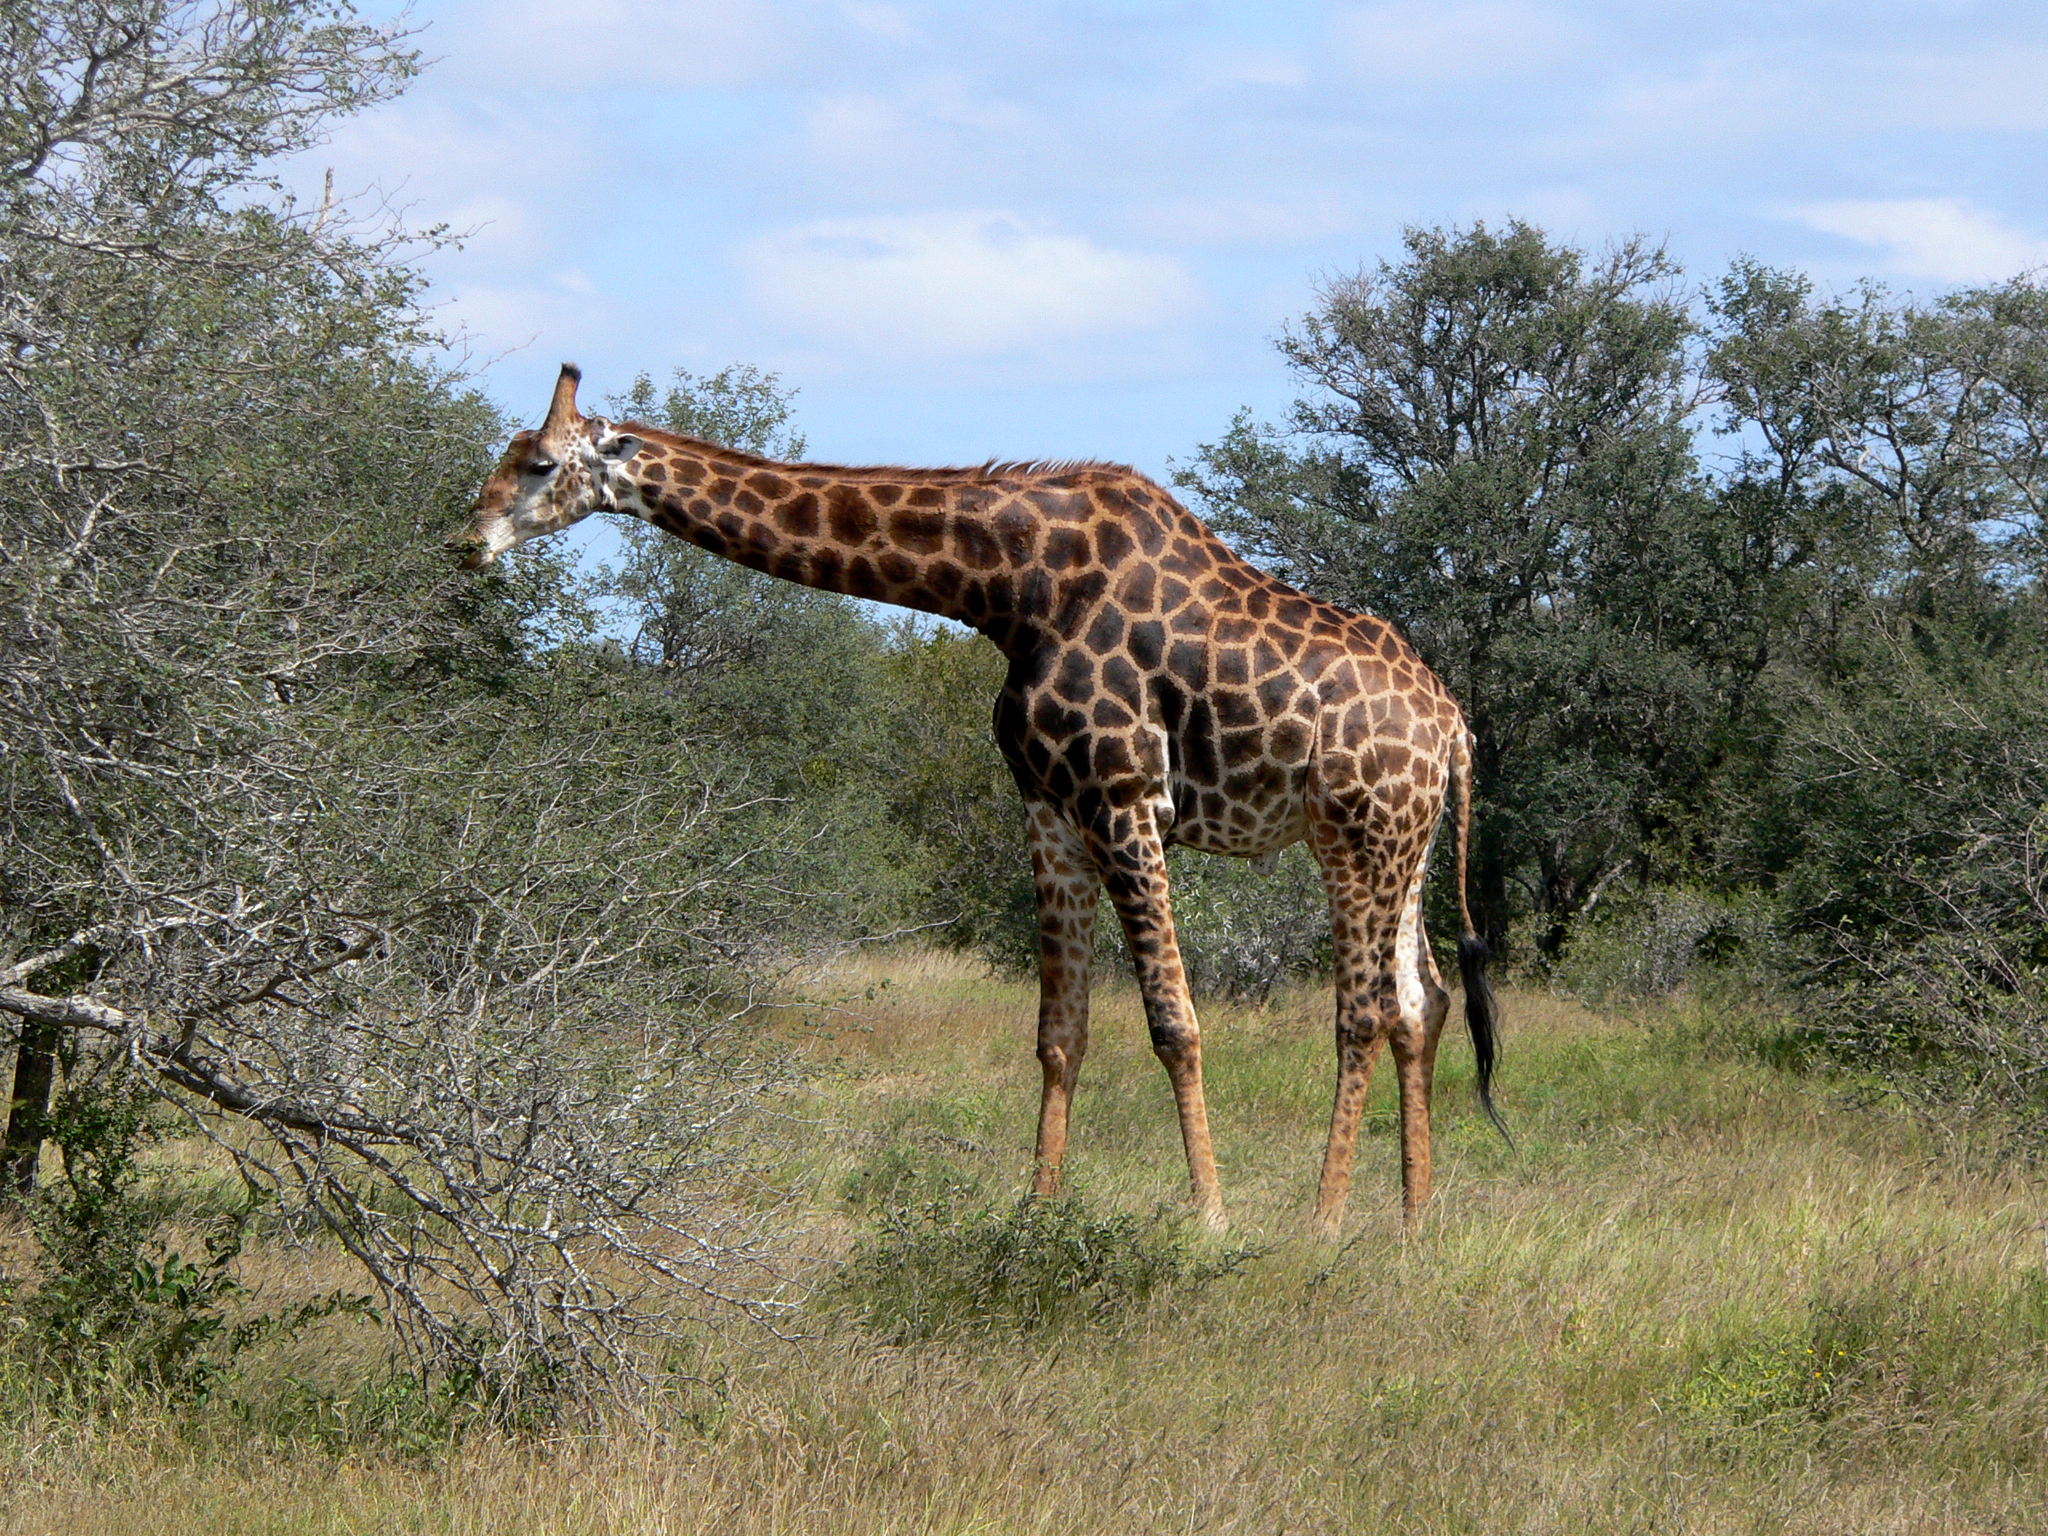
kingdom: Animalia
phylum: Chordata
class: Mammalia
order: Artiodactyla
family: Giraffidae
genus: Giraffa
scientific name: Giraffa giraffa
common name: Southern giraffe
